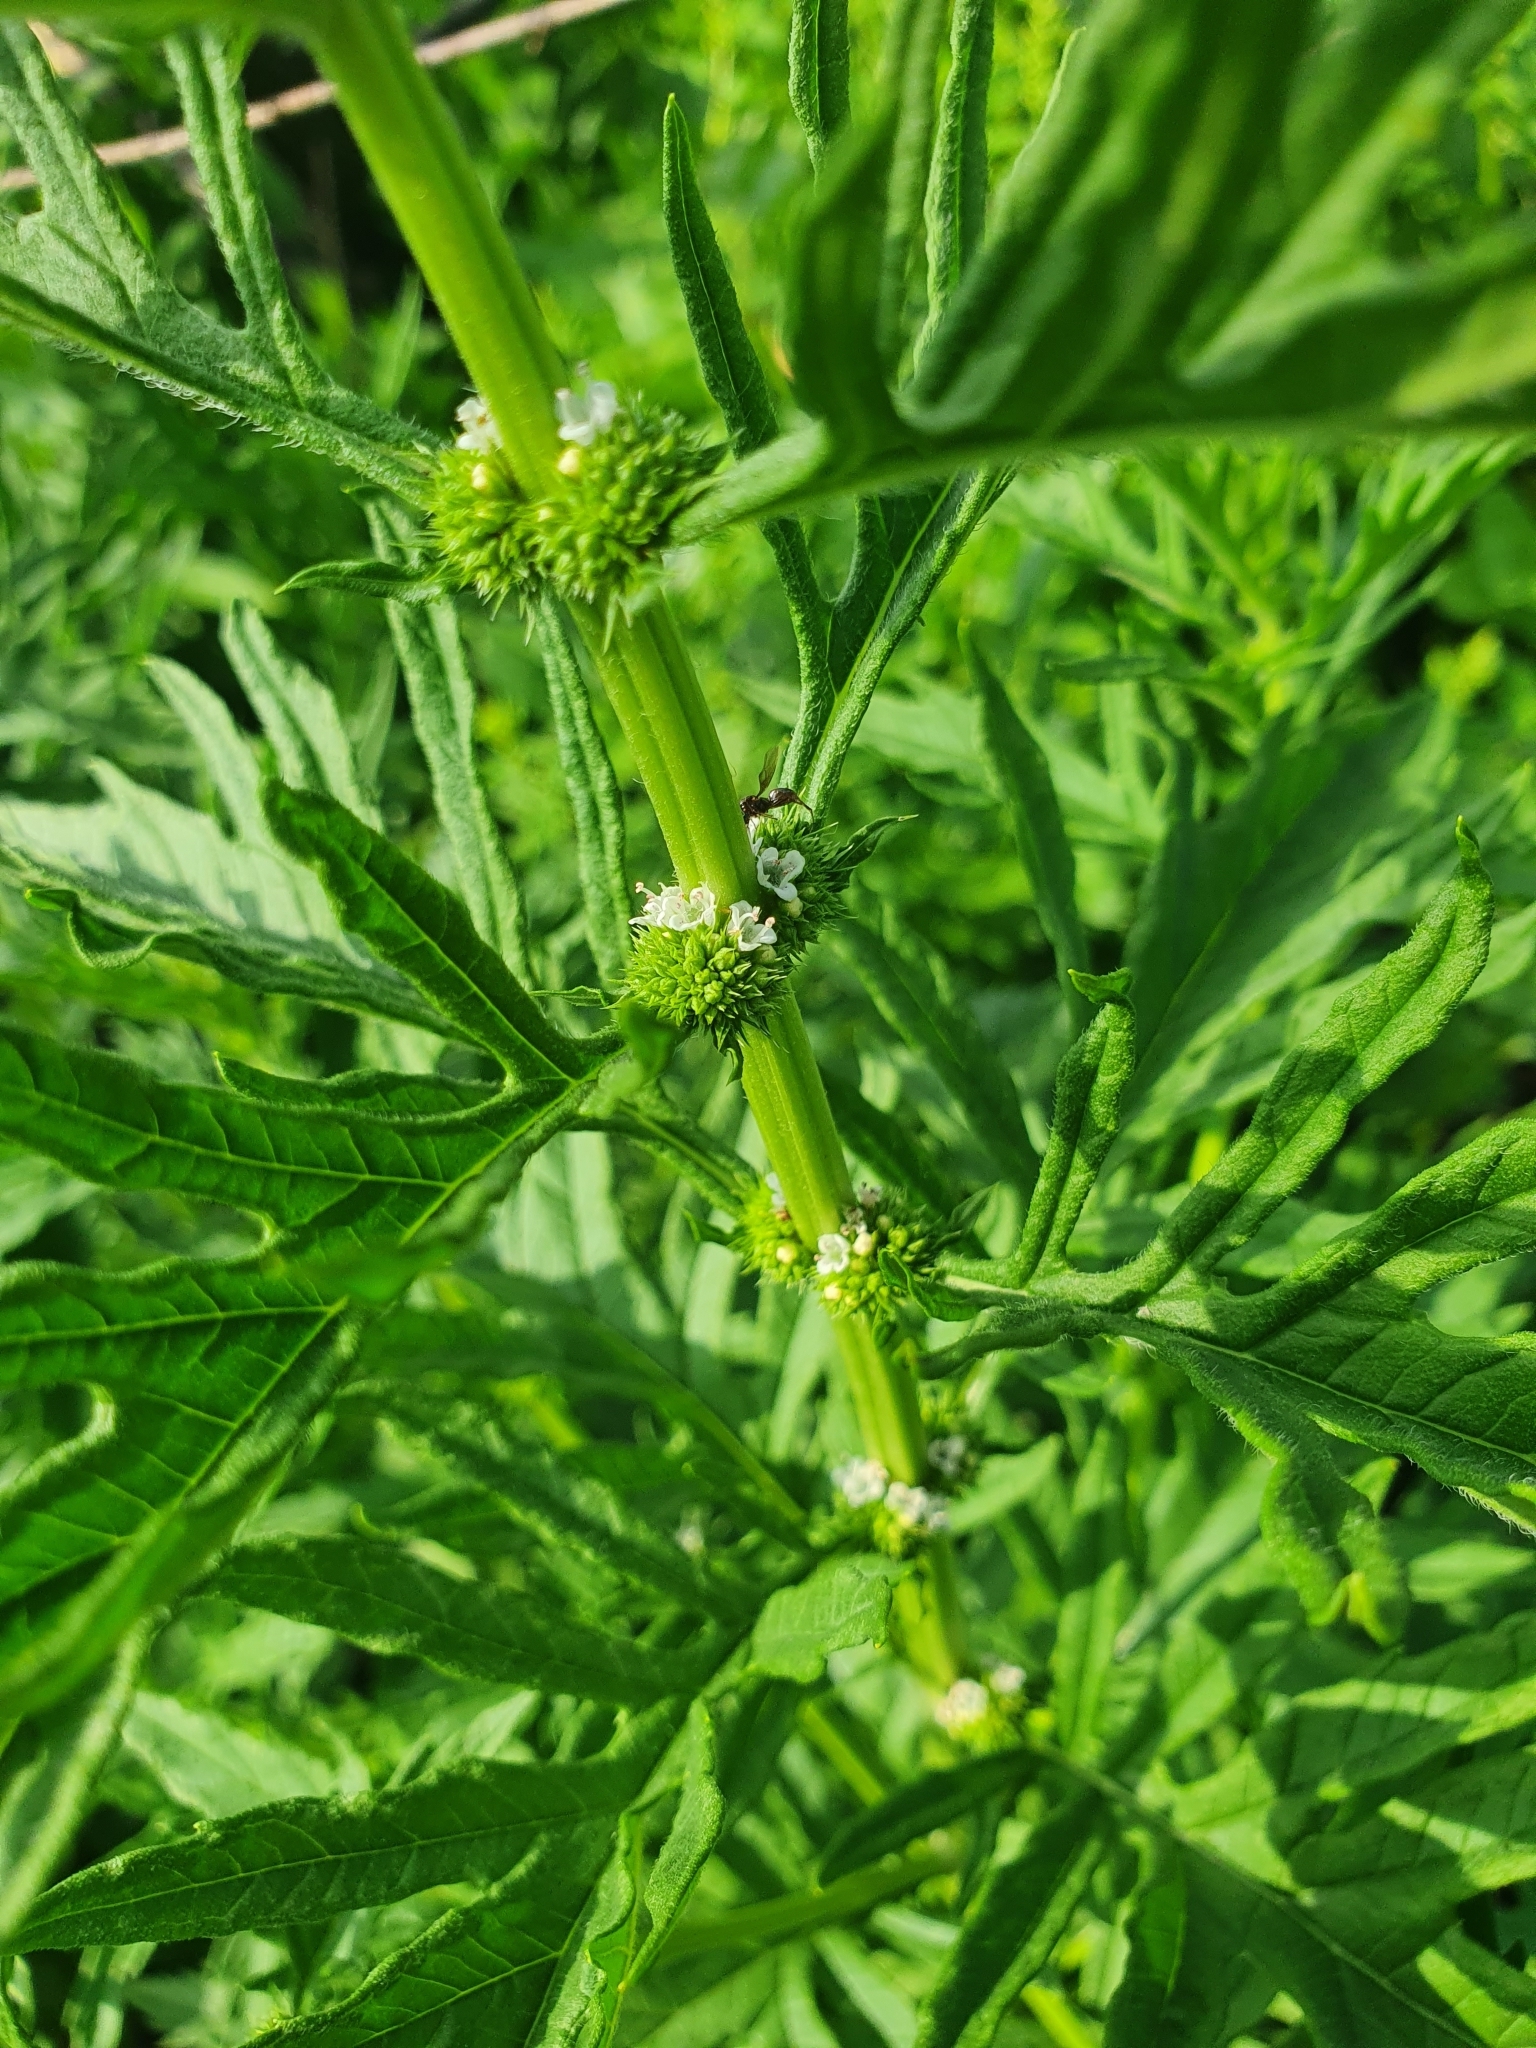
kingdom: Plantae
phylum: Tracheophyta
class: Magnoliopsida
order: Lamiales
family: Lamiaceae
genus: Lycopus
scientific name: Lycopus exaltatus
